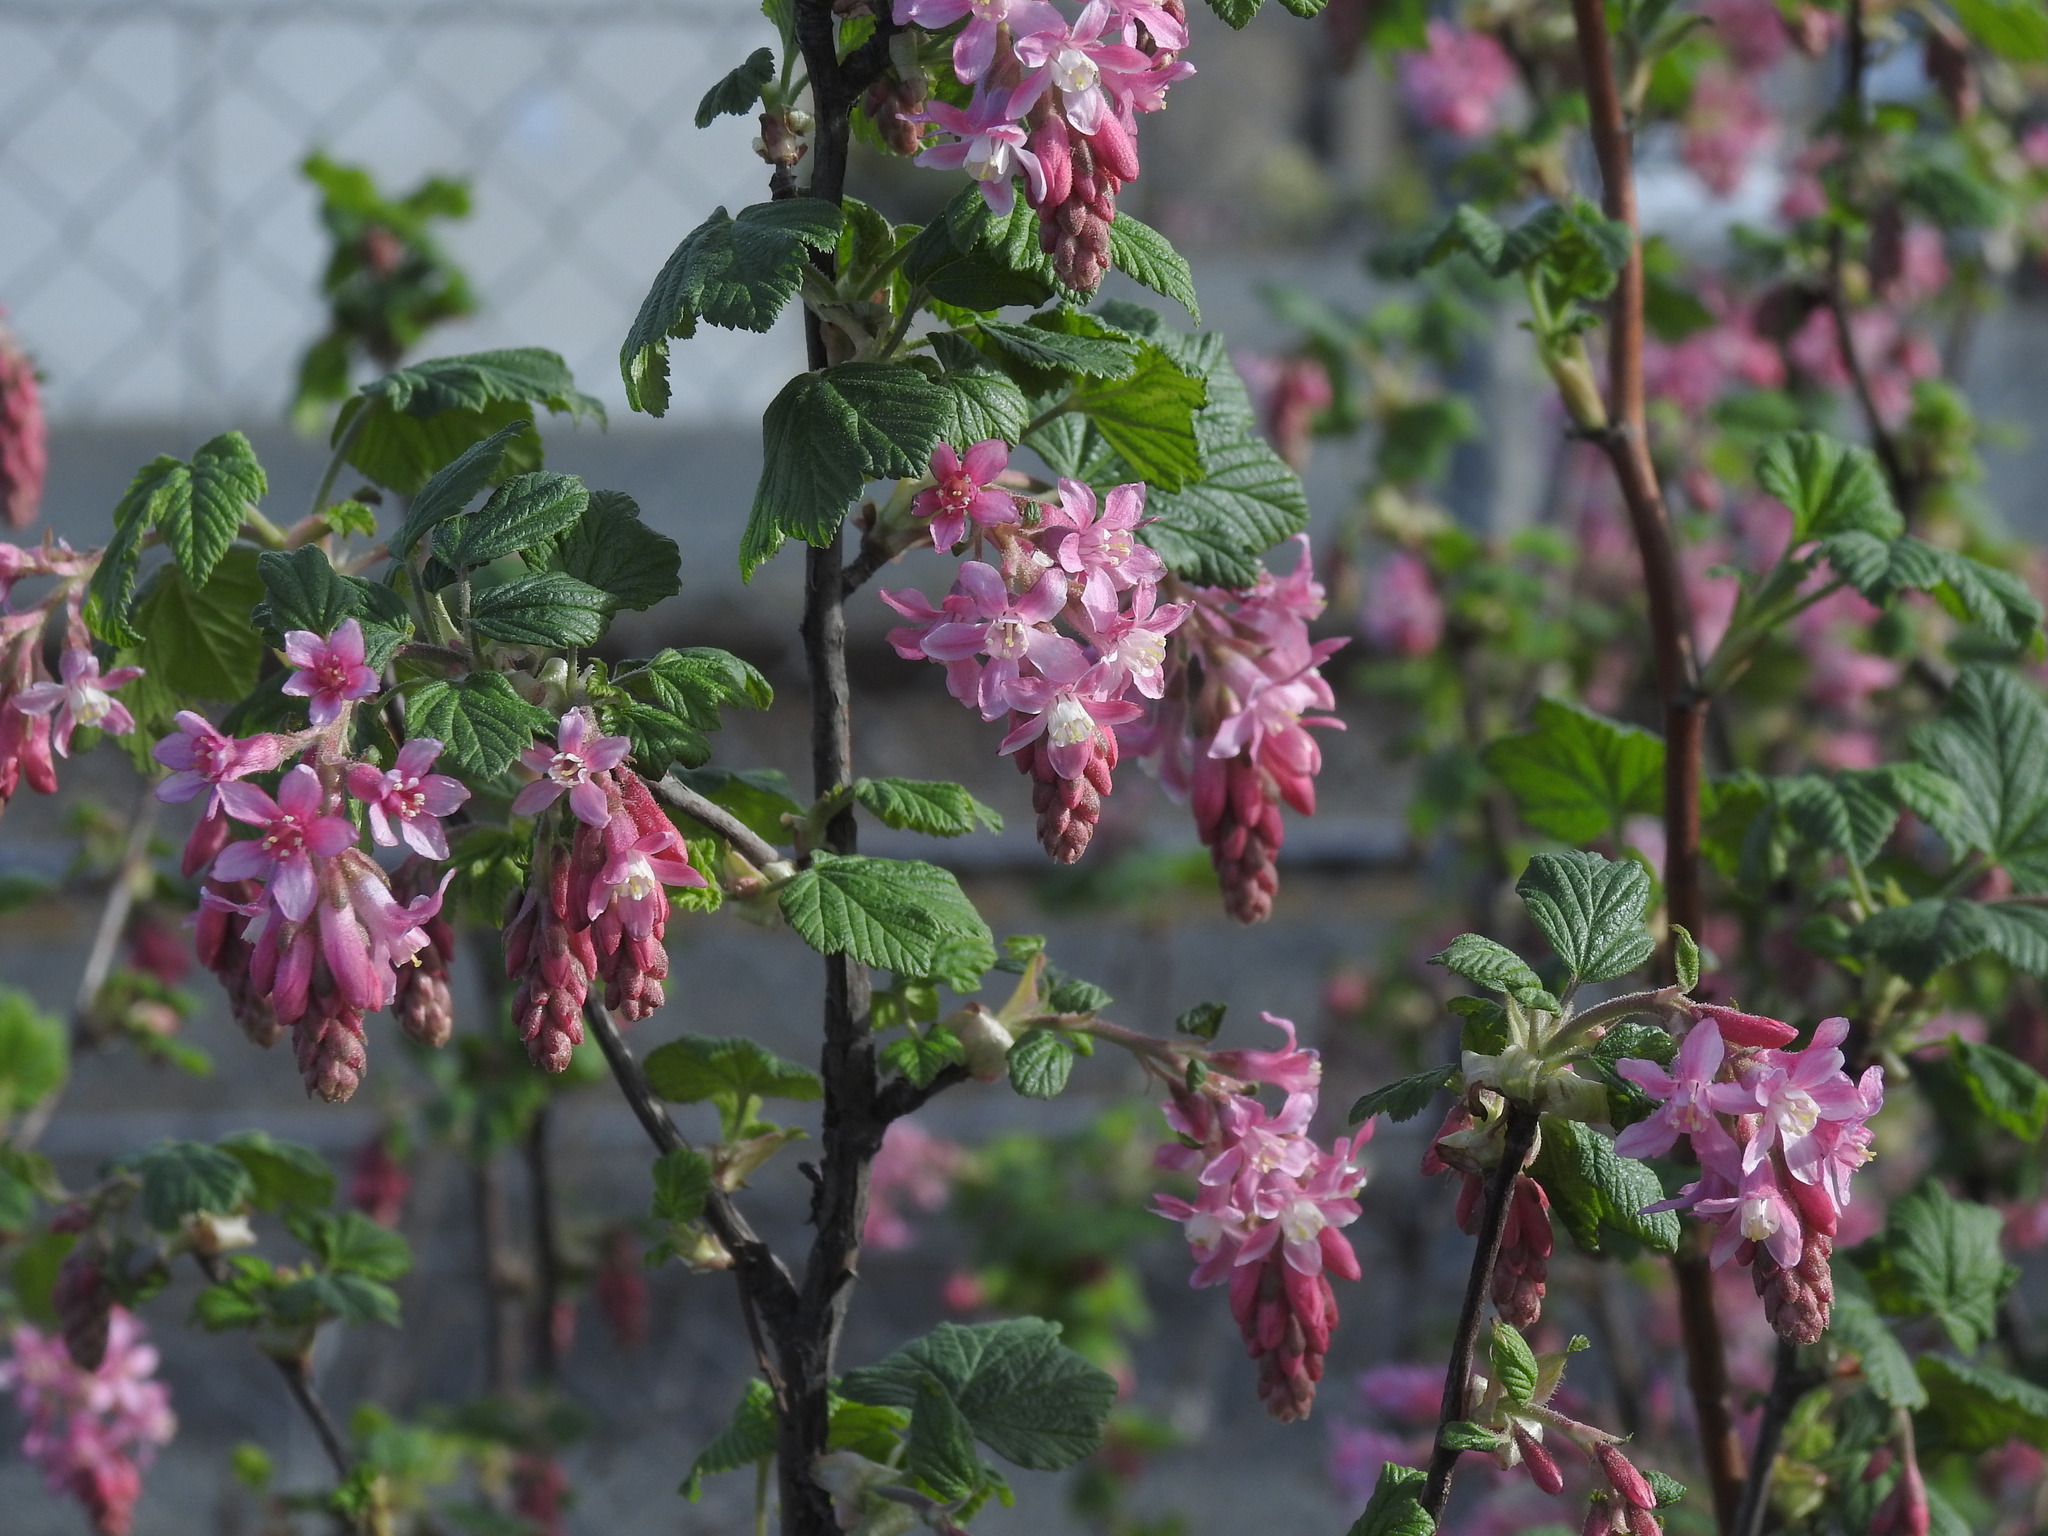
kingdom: Plantae
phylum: Tracheophyta
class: Magnoliopsida
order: Saxifragales
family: Grossulariaceae
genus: Ribes
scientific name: Ribes sanguineum
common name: Flowering currant
